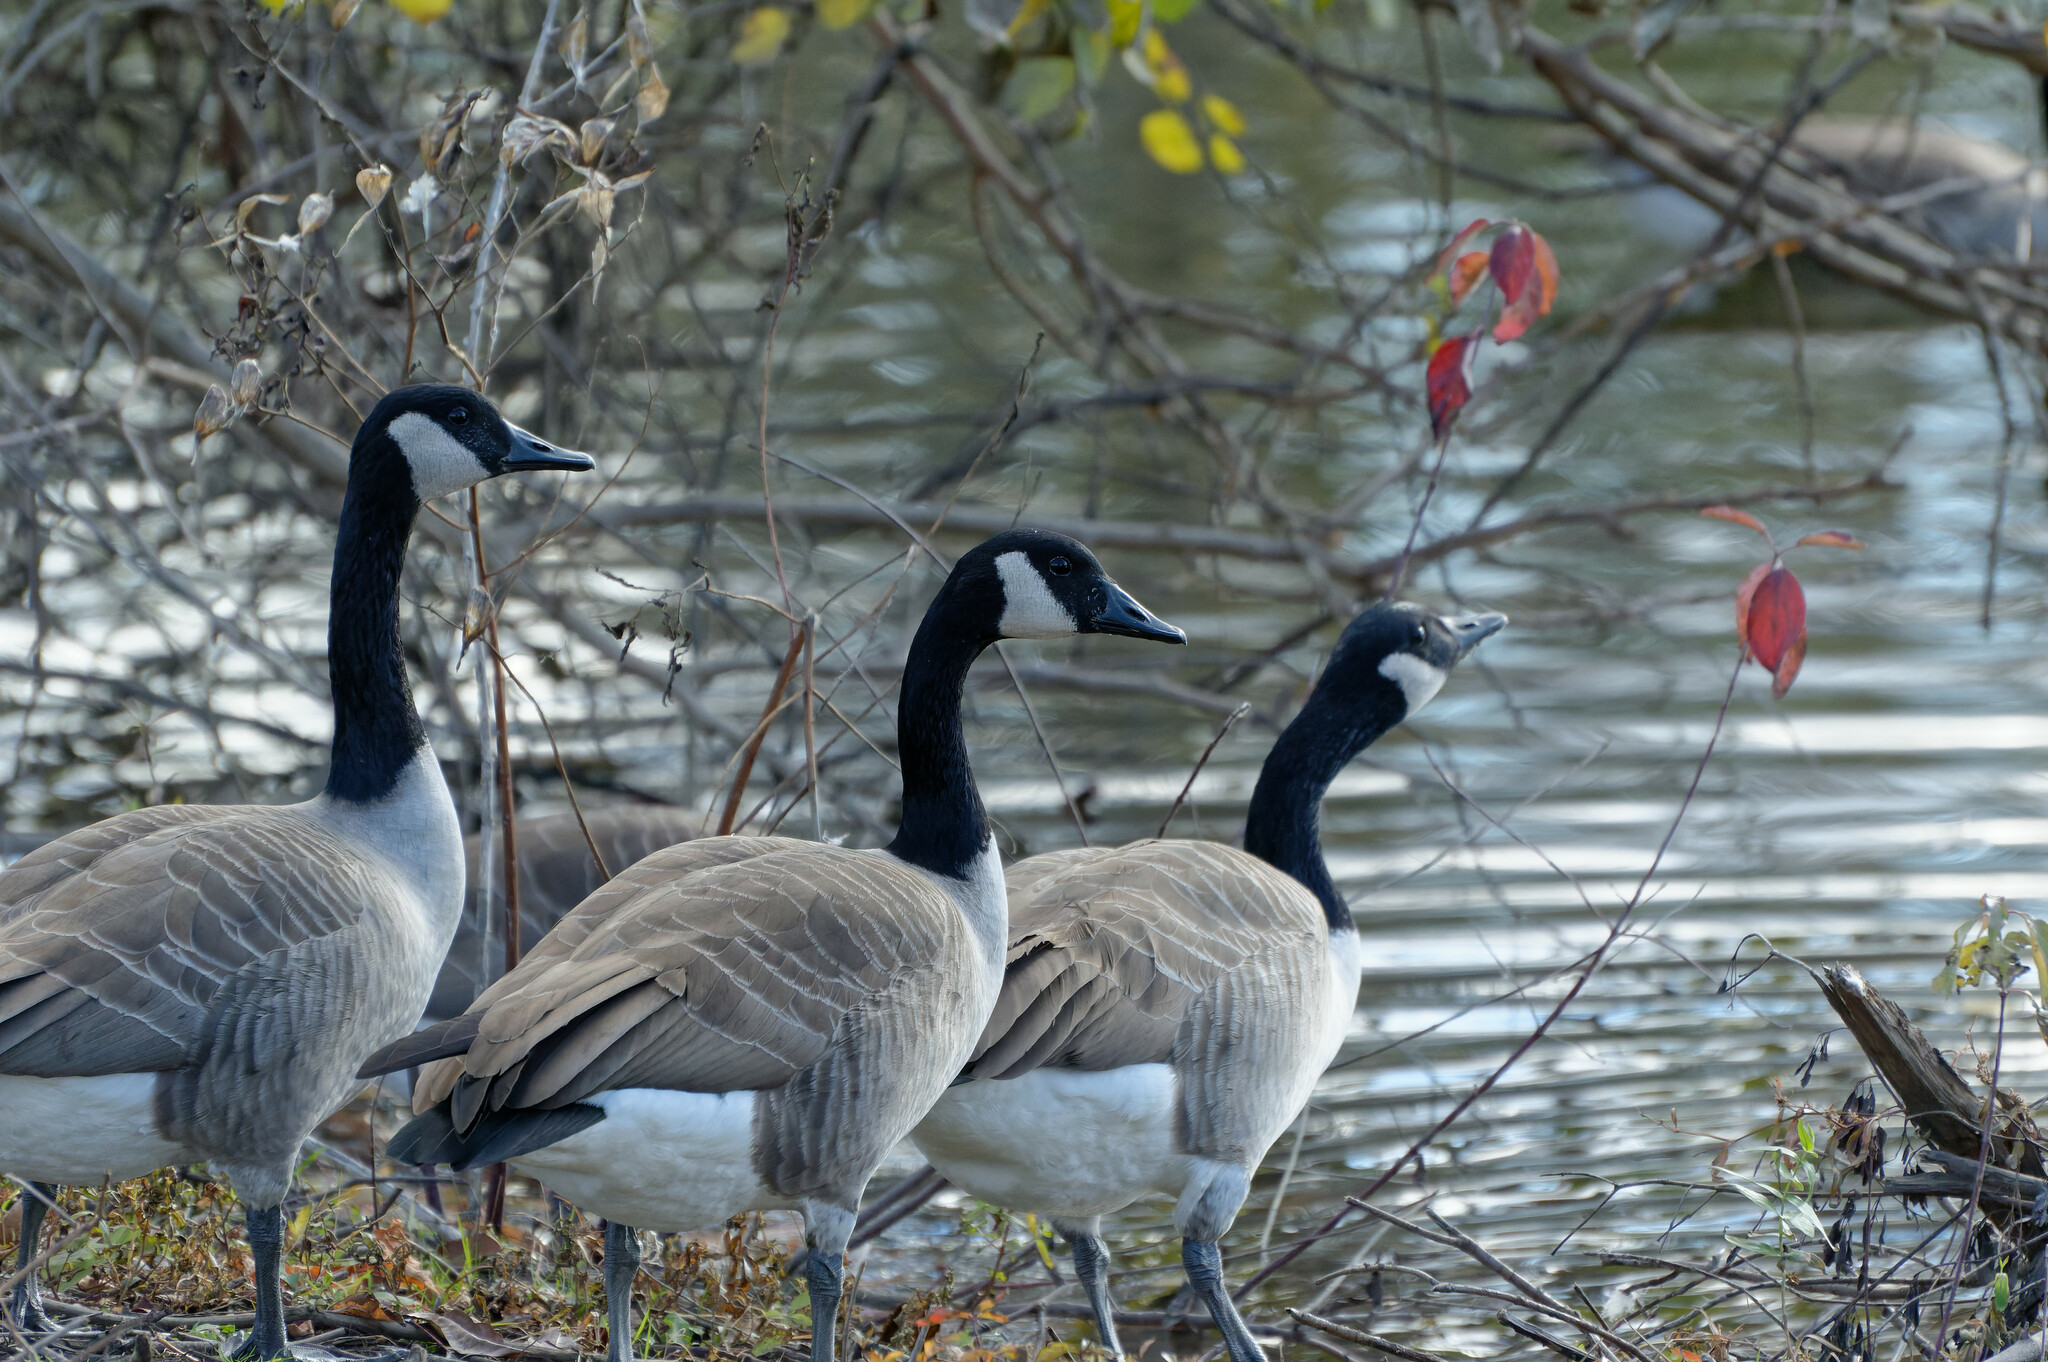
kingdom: Animalia
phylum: Chordata
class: Aves
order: Anseriformes
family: Anatidae
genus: Branta
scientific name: Branta canadensis
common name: Canada goose
